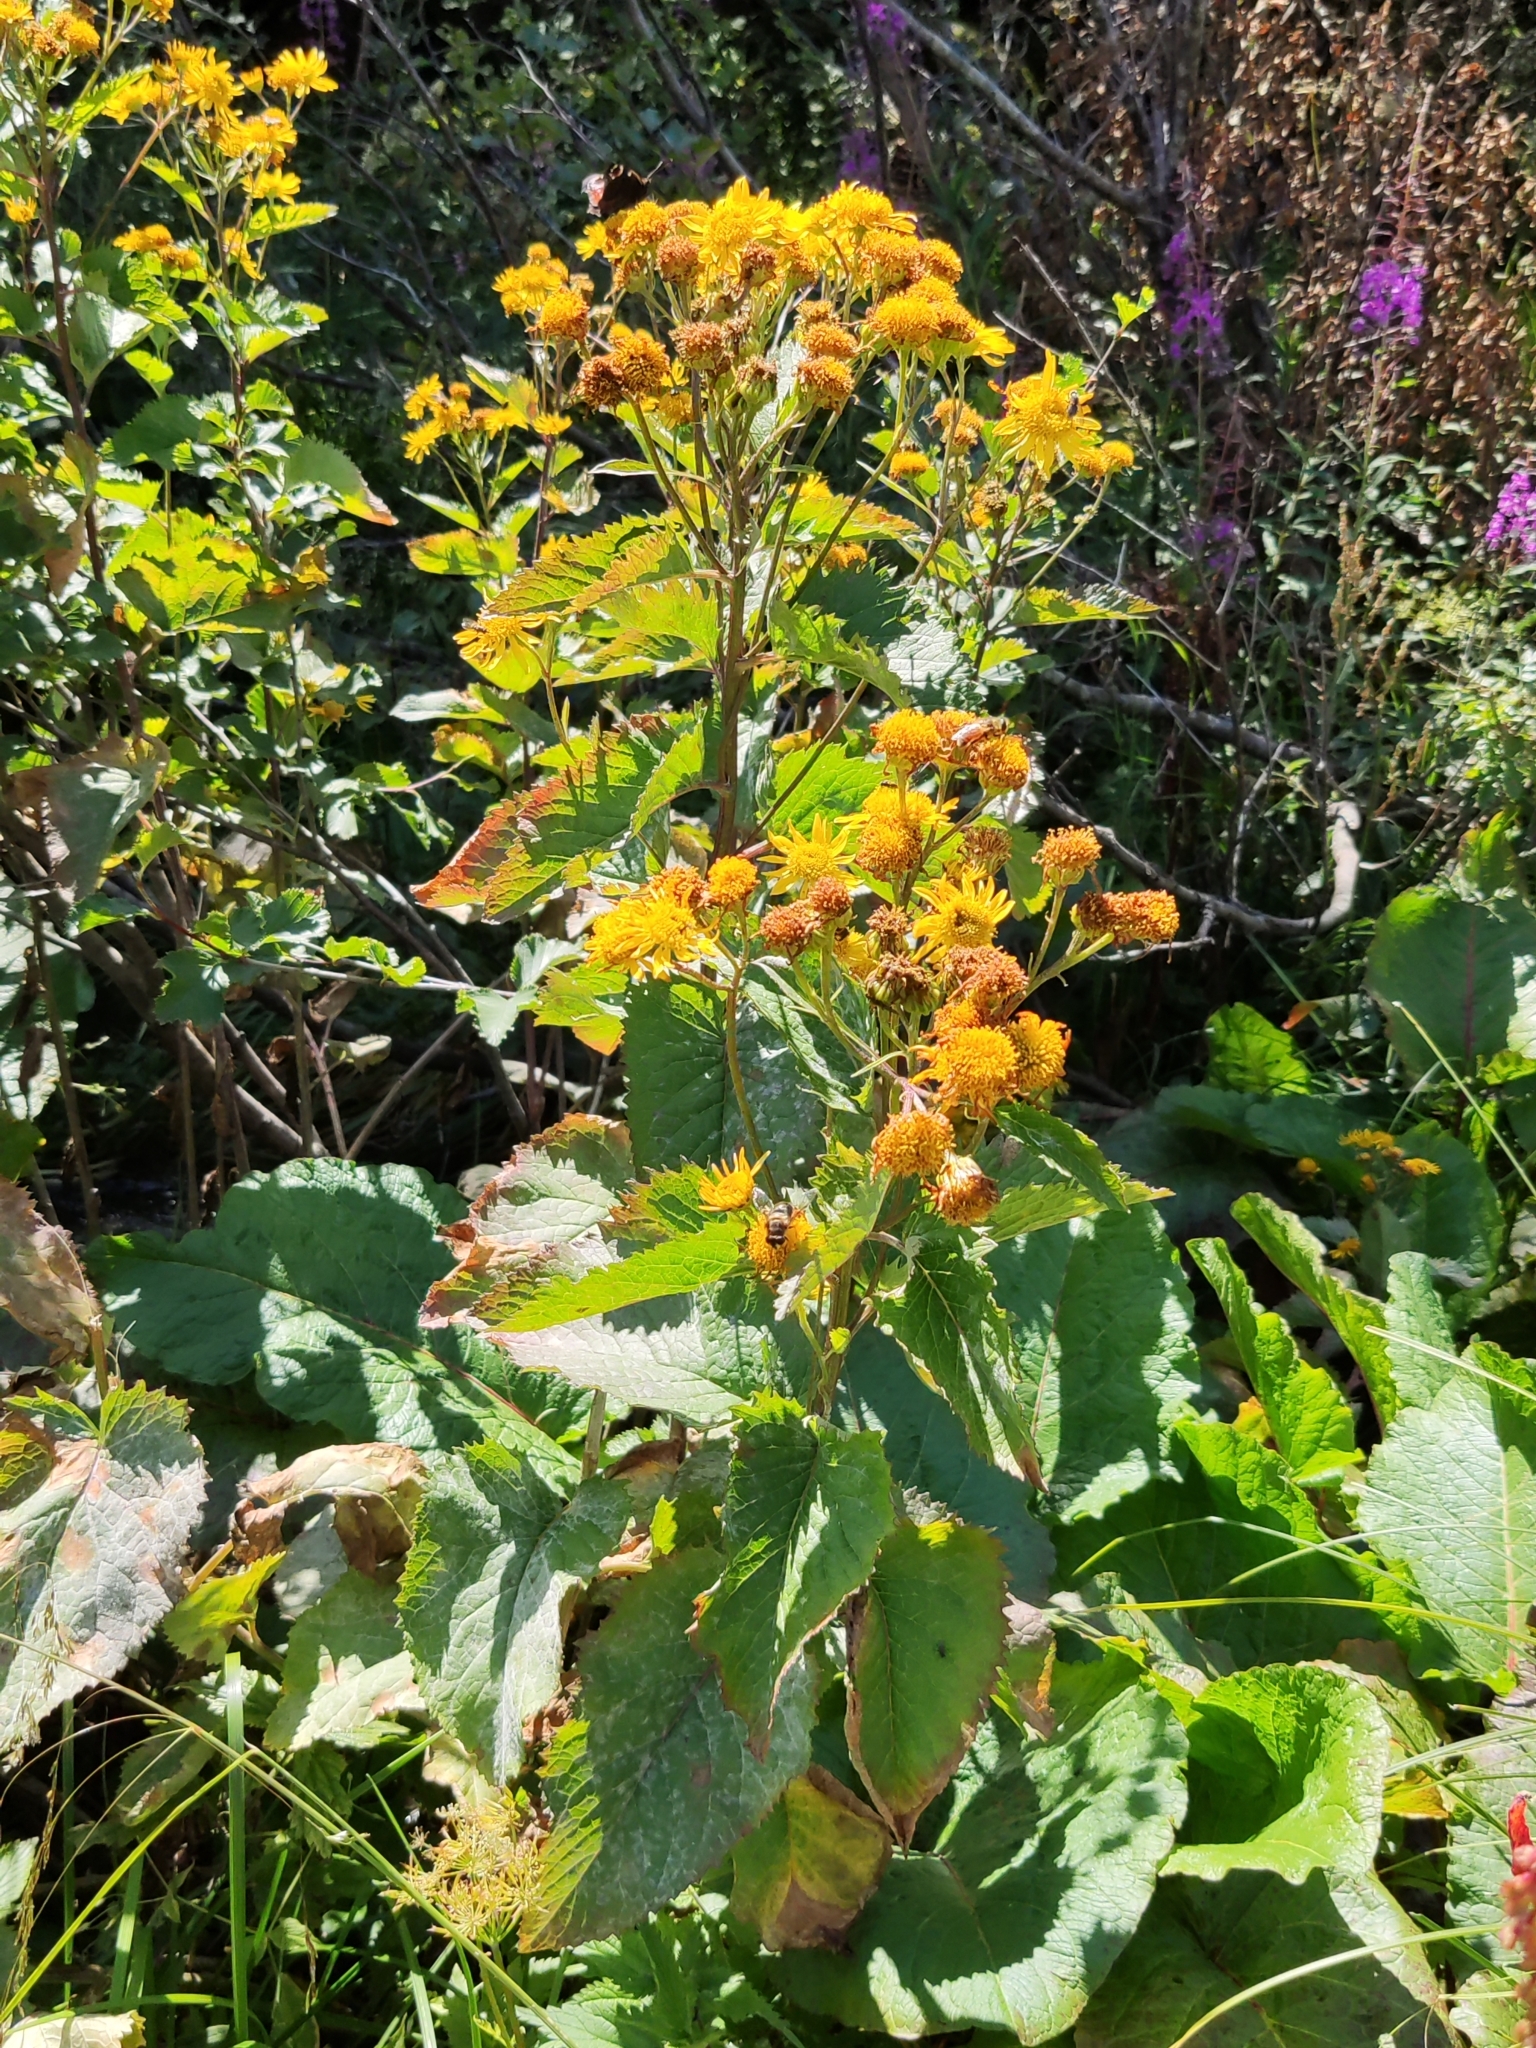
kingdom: Plantae
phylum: Tracheophyta
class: Magnoliopsida
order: Asterales
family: Asteraceae
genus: Jacobaea
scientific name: Jacobaea alpina
